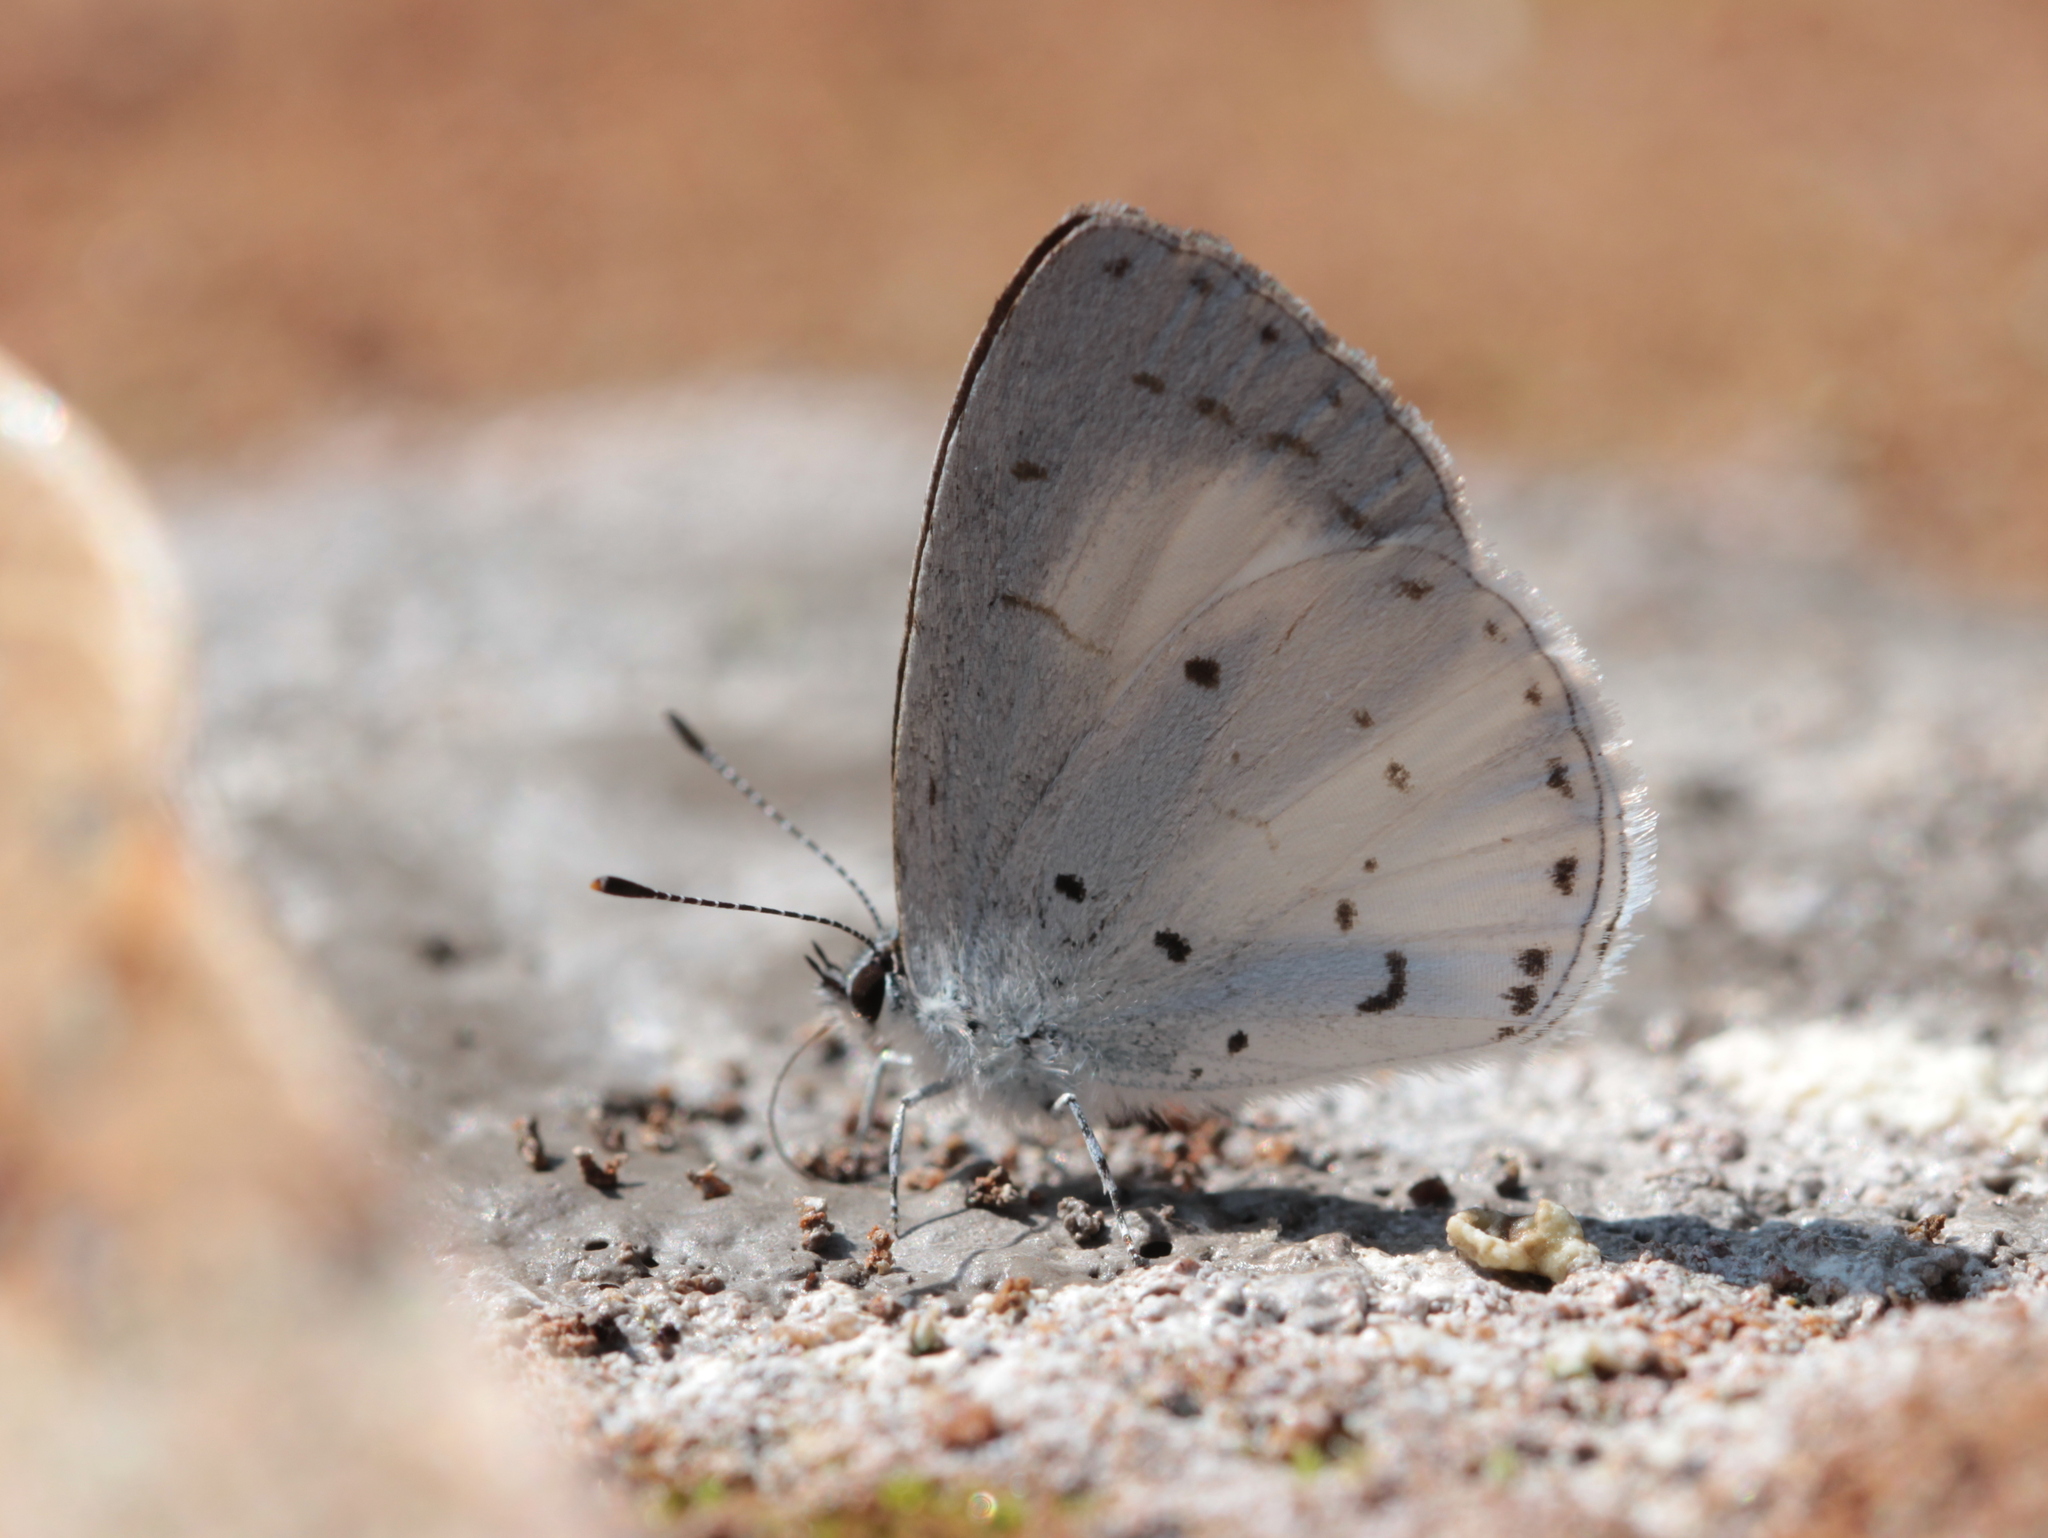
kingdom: Animalia
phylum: Arthropoda
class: Insecta
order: Lepidoptera
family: Lycaenidae
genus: Udara
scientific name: Udara akasa
